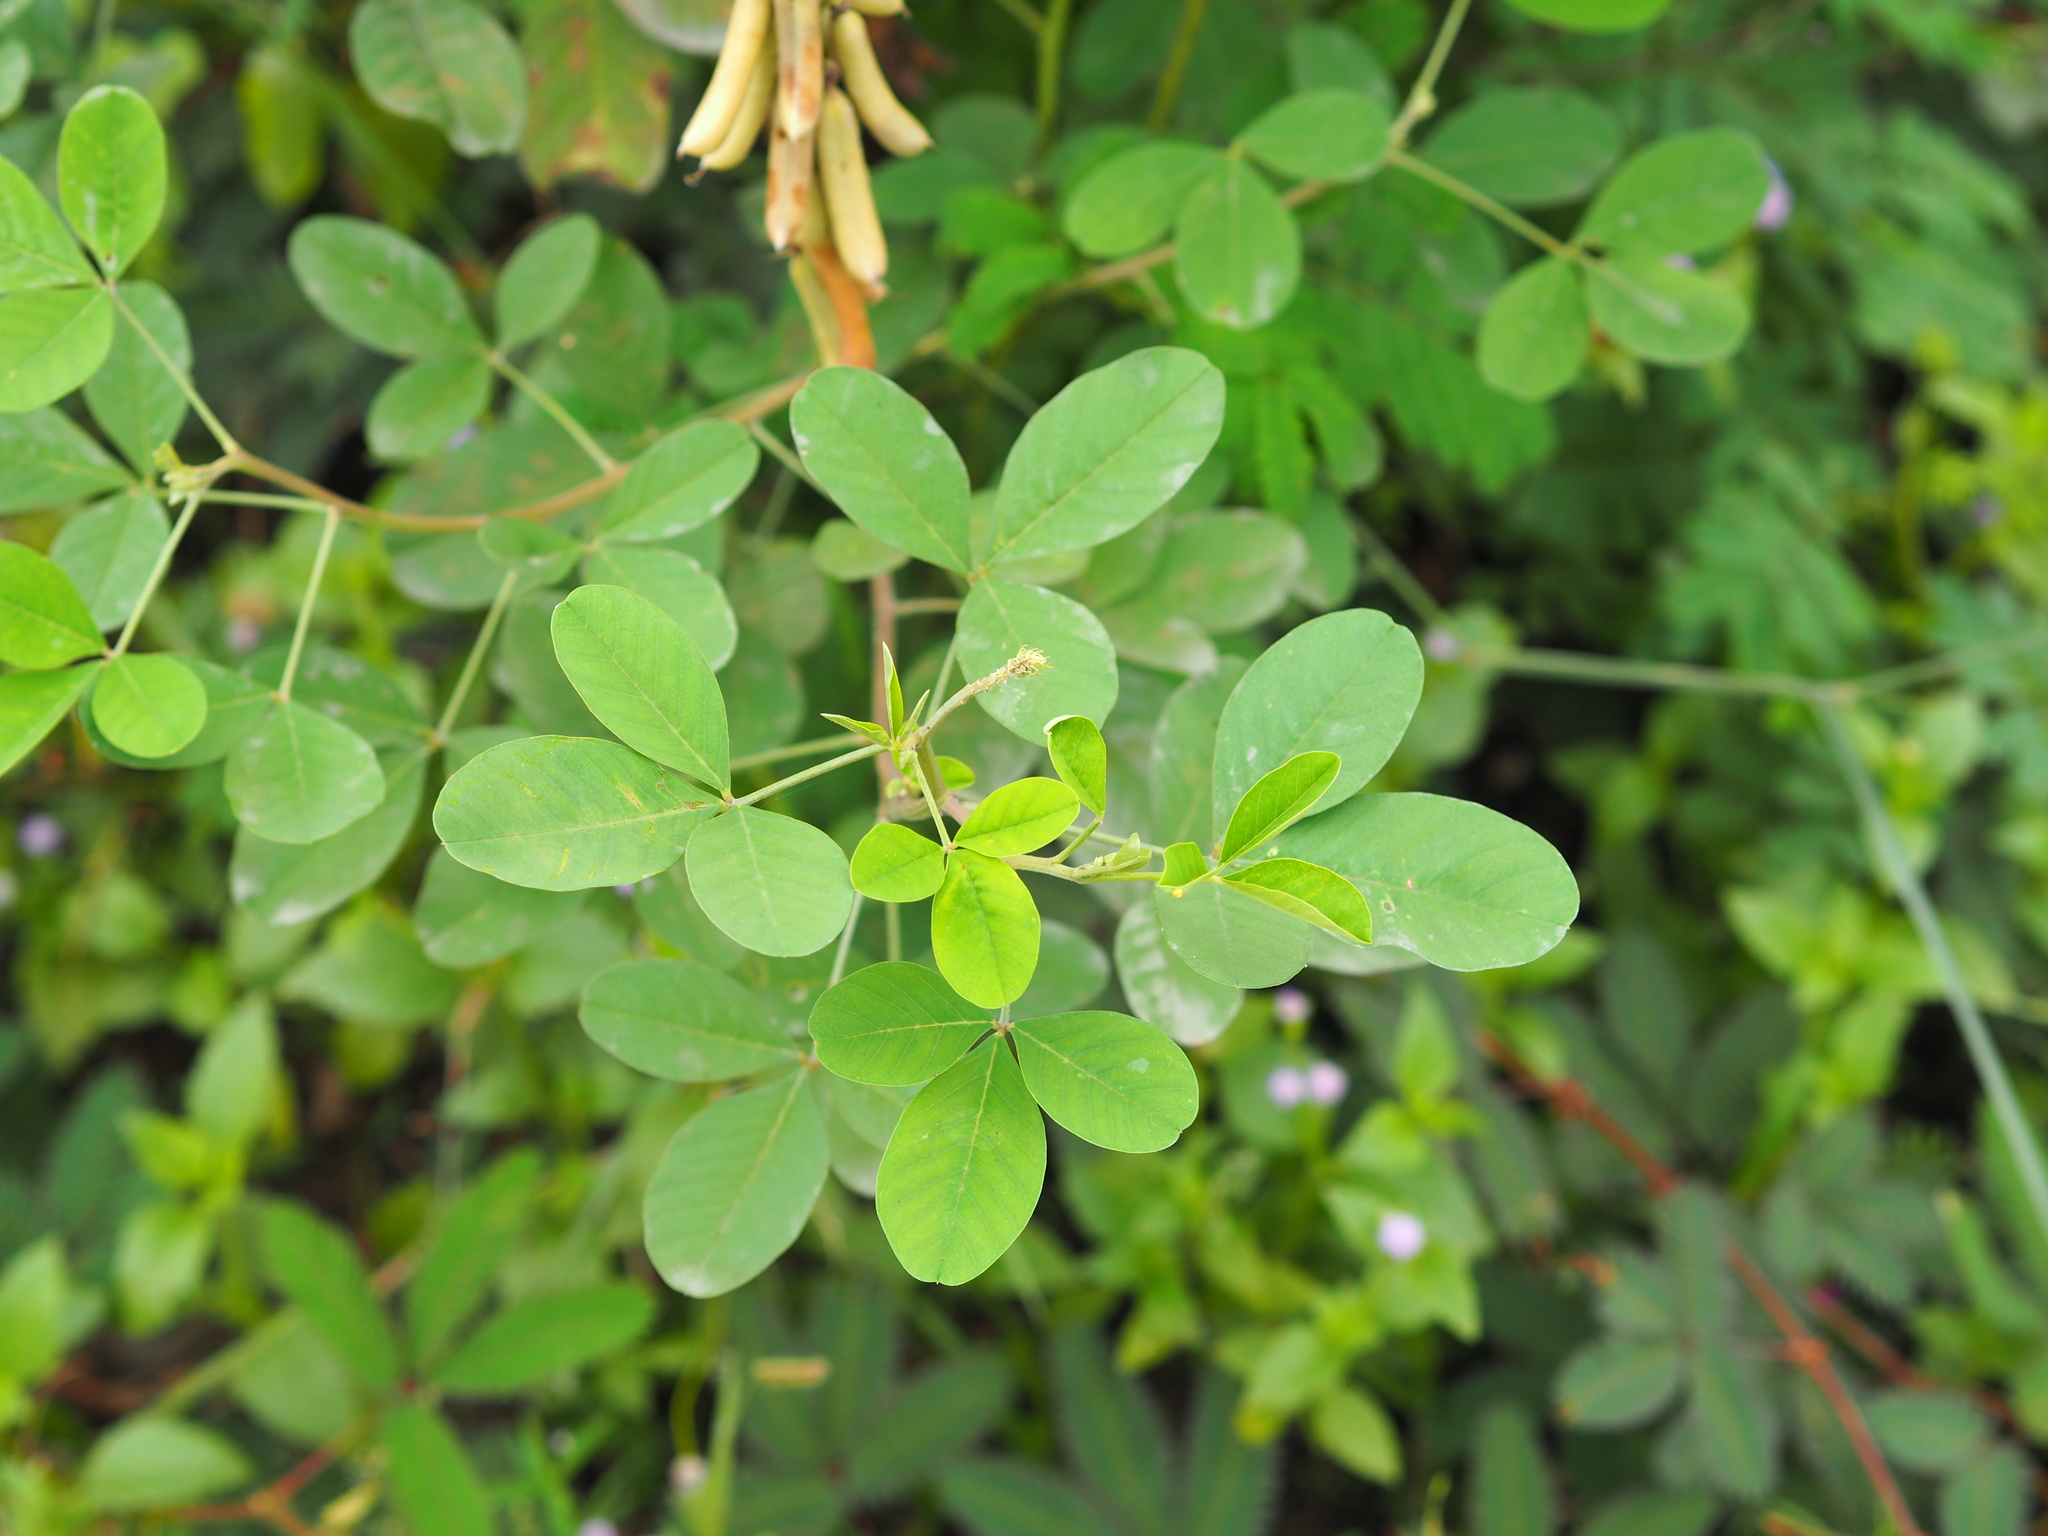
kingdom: Plantae
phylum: Tracheophyta
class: Magnoliopsida
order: Fabales
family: Fabaceae
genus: Crotalaria
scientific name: Crotalaria pallida
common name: Smooth rattlebox
